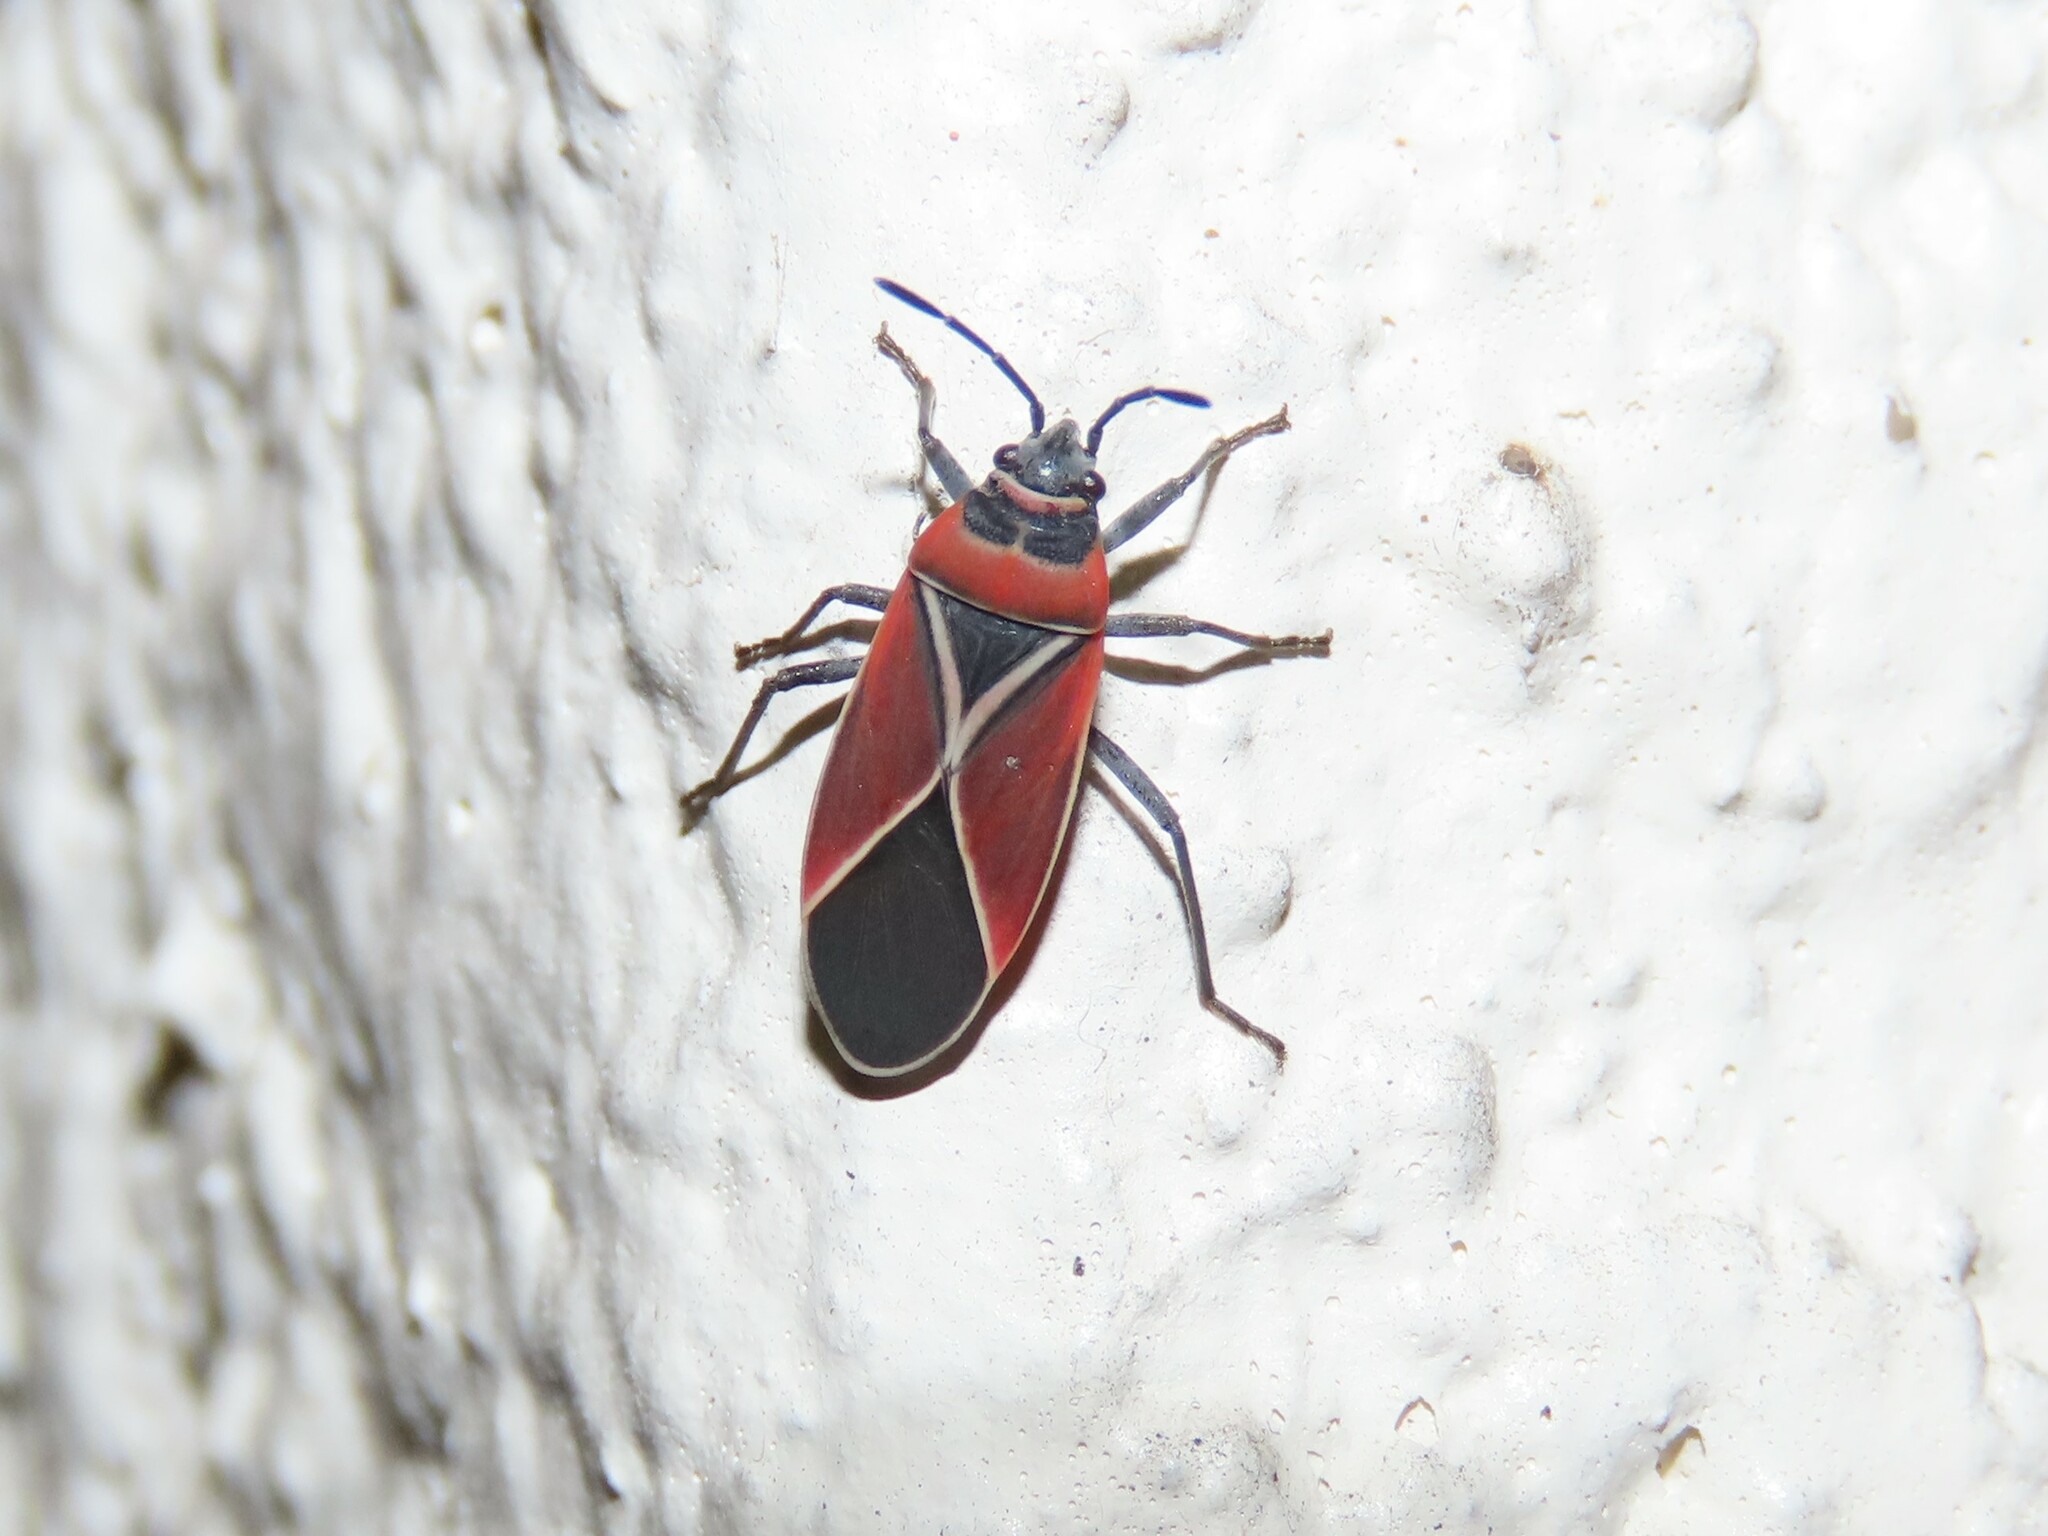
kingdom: Animalia
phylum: Arthropoda
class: Insecta
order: Hemiptera
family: Lygaeidae
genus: Neacoryphus
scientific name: Neacoryphus bicrucis
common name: Lygaeid bug
